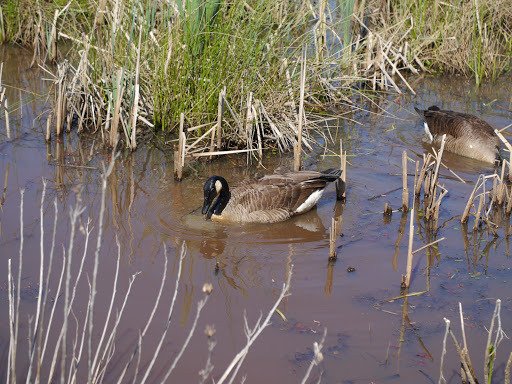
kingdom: Animalia
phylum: Chordata
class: Aves
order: Anseriformes
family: Anatidae
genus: Branta
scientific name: Branta canadensis
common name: Canada goose
